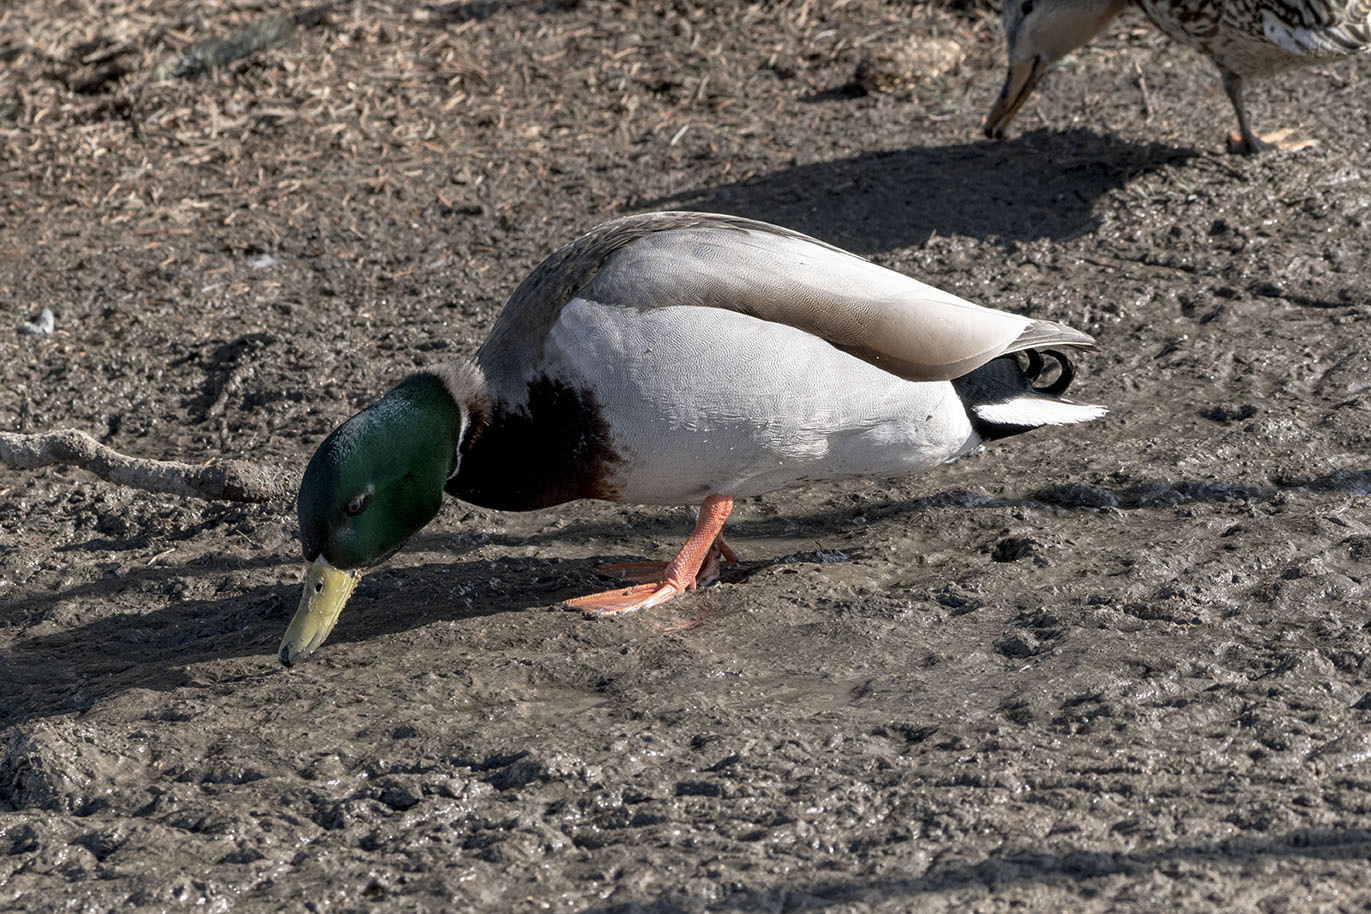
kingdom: Animalia
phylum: Chordata
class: Aves
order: Anseriformes
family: Anatidae
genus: Anas
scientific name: Anas platyrhynchos
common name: Mallard
